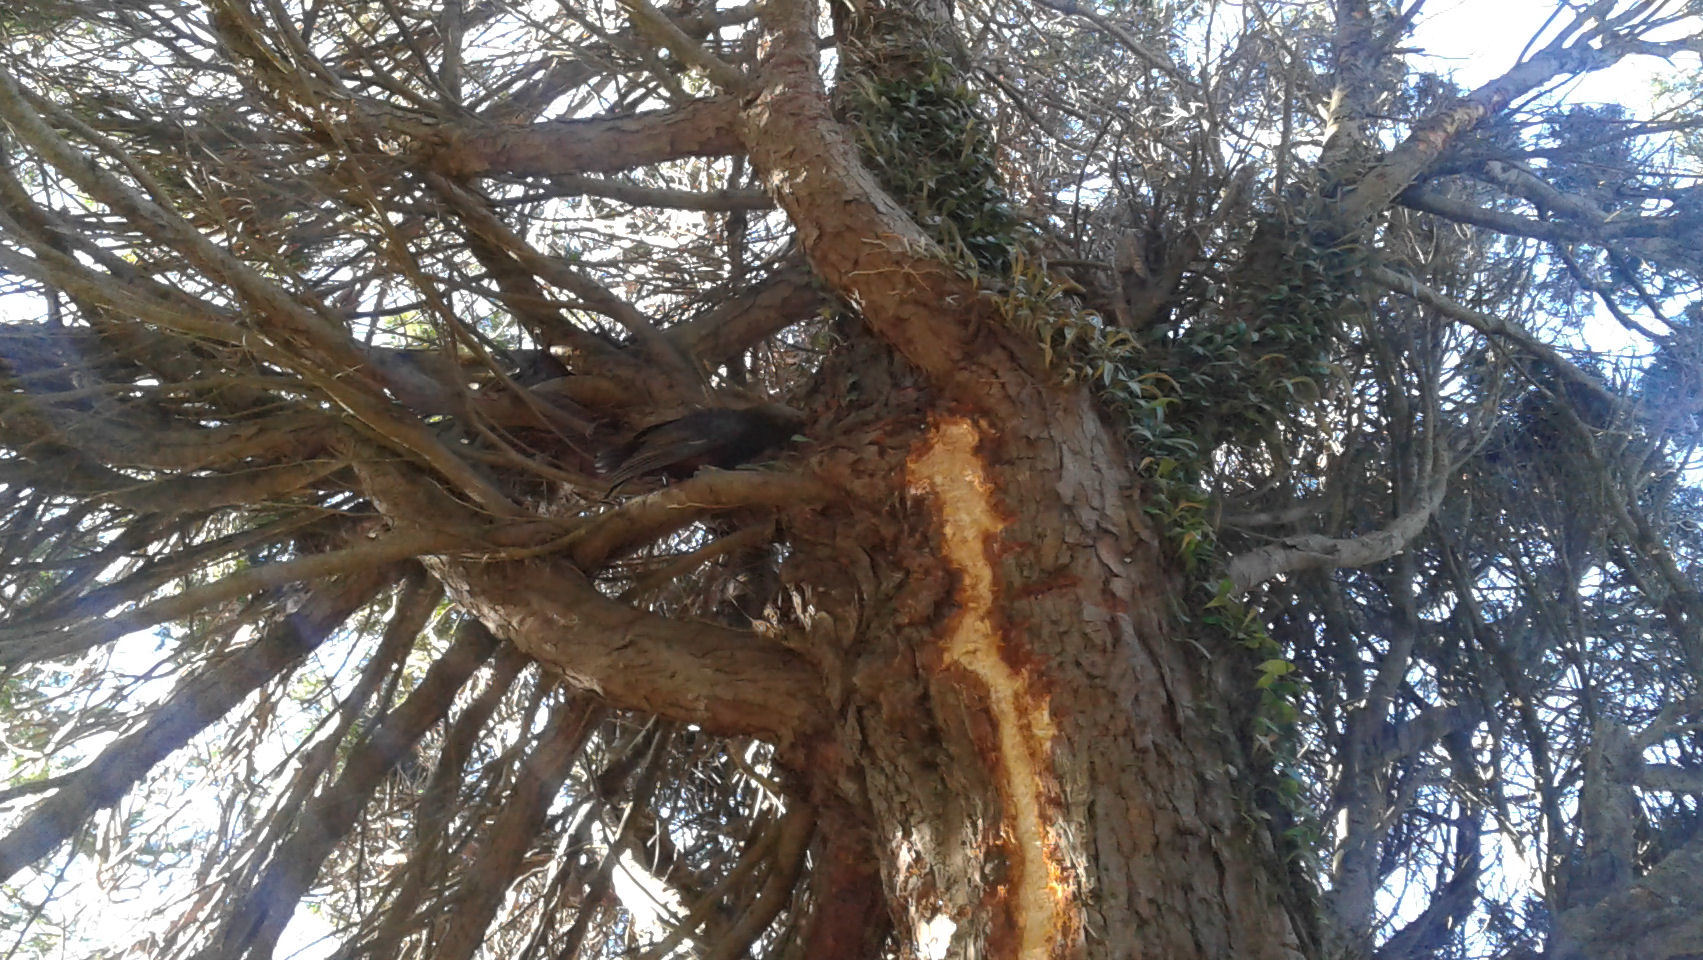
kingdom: Animalia
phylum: Chordata
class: Aves
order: Psittaciformes
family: Psittacidae
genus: Nestor
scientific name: Nestor meridionalis
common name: New zealand kaka
